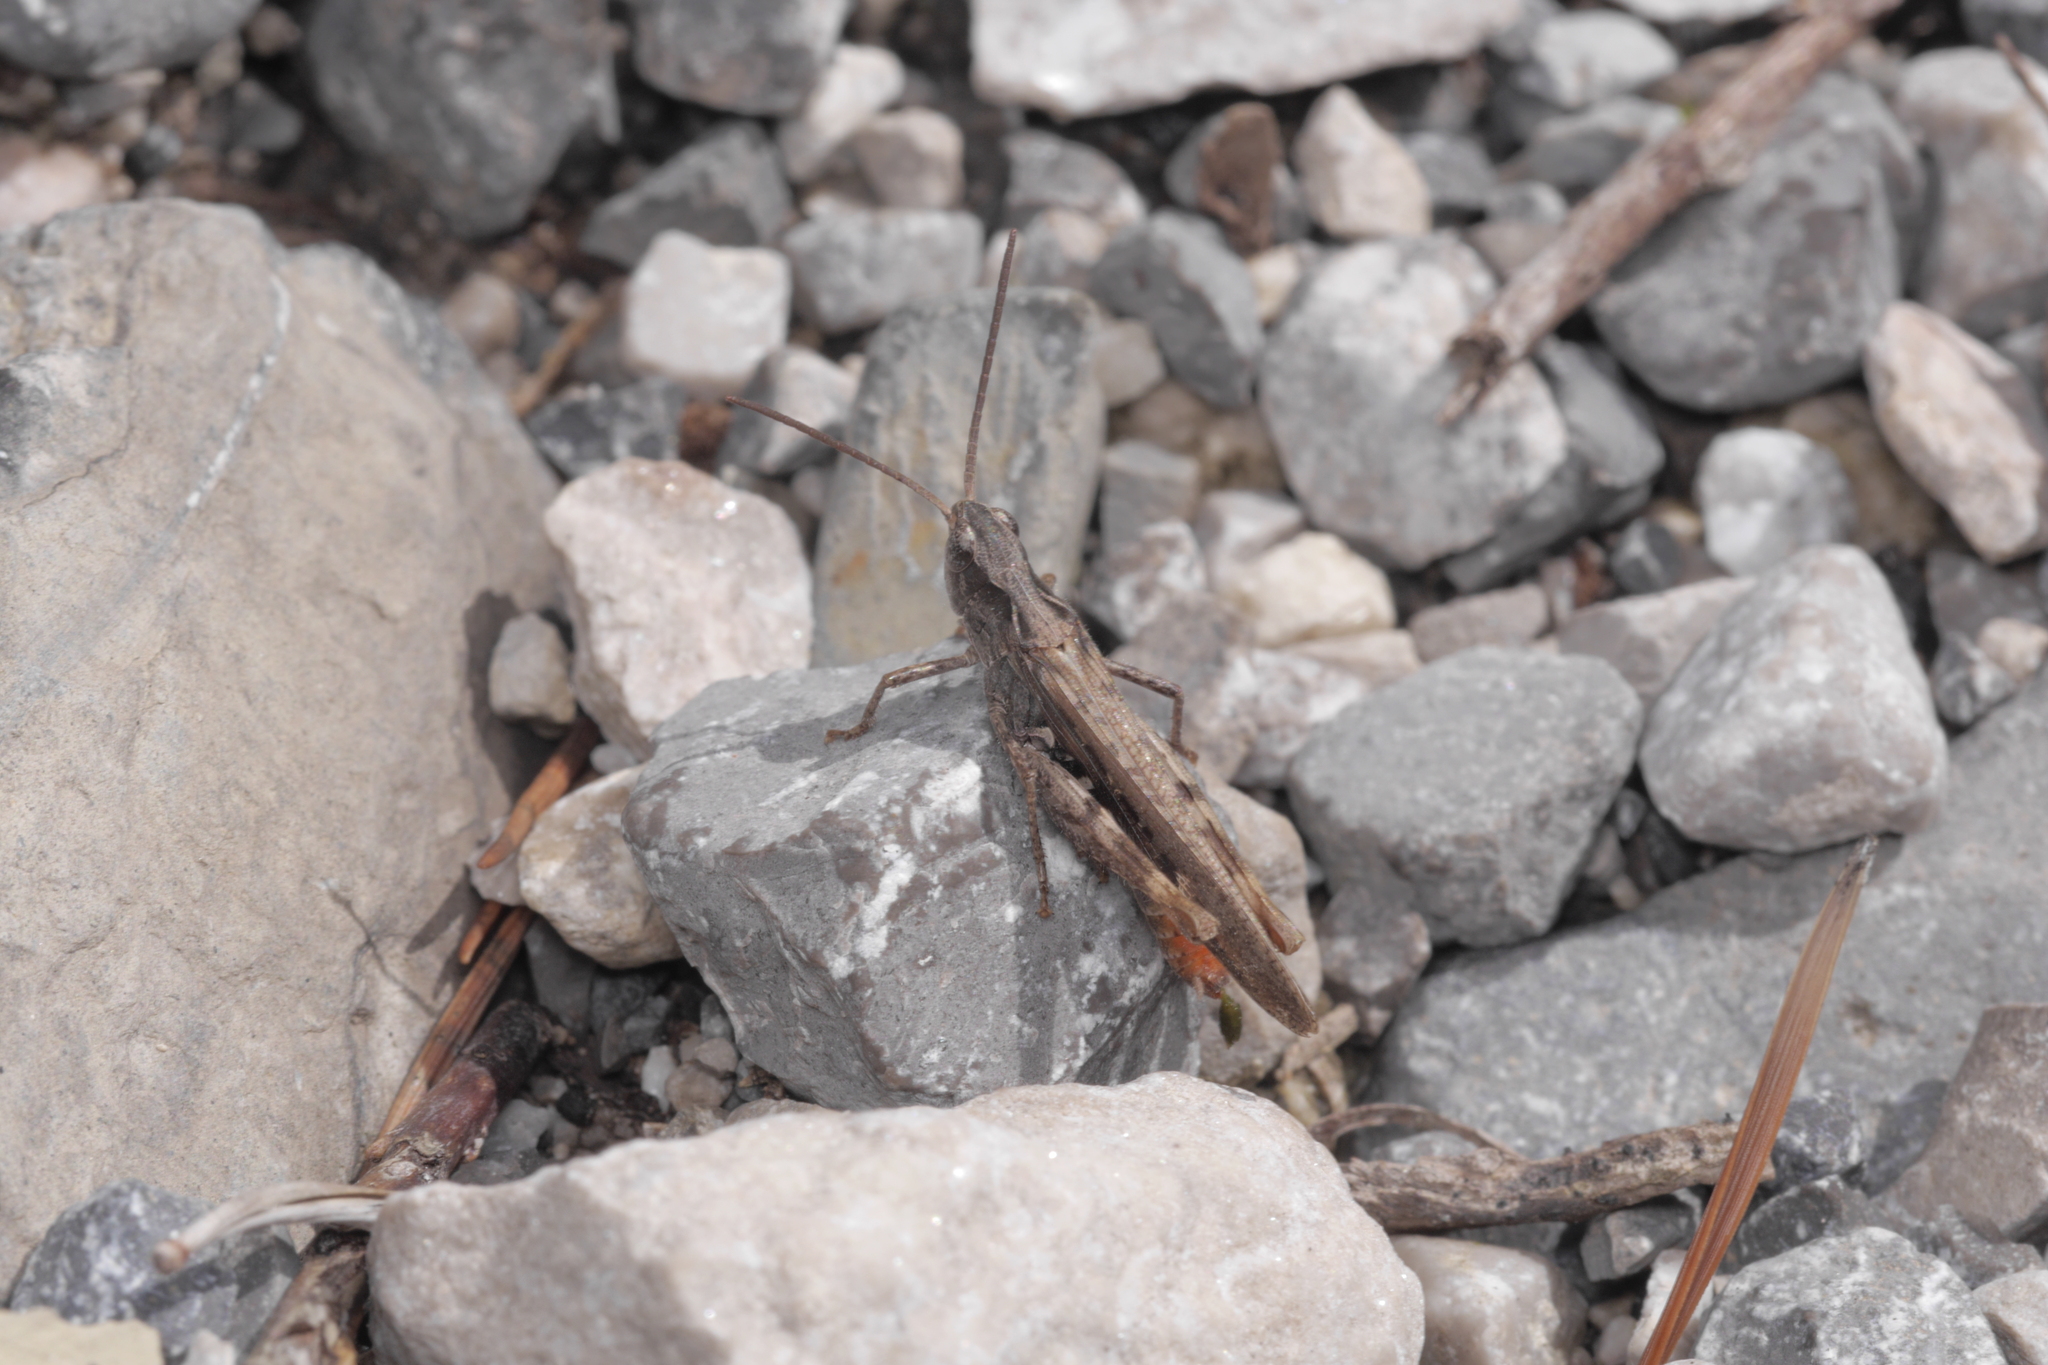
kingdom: Animalia
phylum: Arthropoda
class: Insecta
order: Orthoptera
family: Acrididae
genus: Chorthippus
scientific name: Chorthippus brunneus
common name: Field grasshopper
